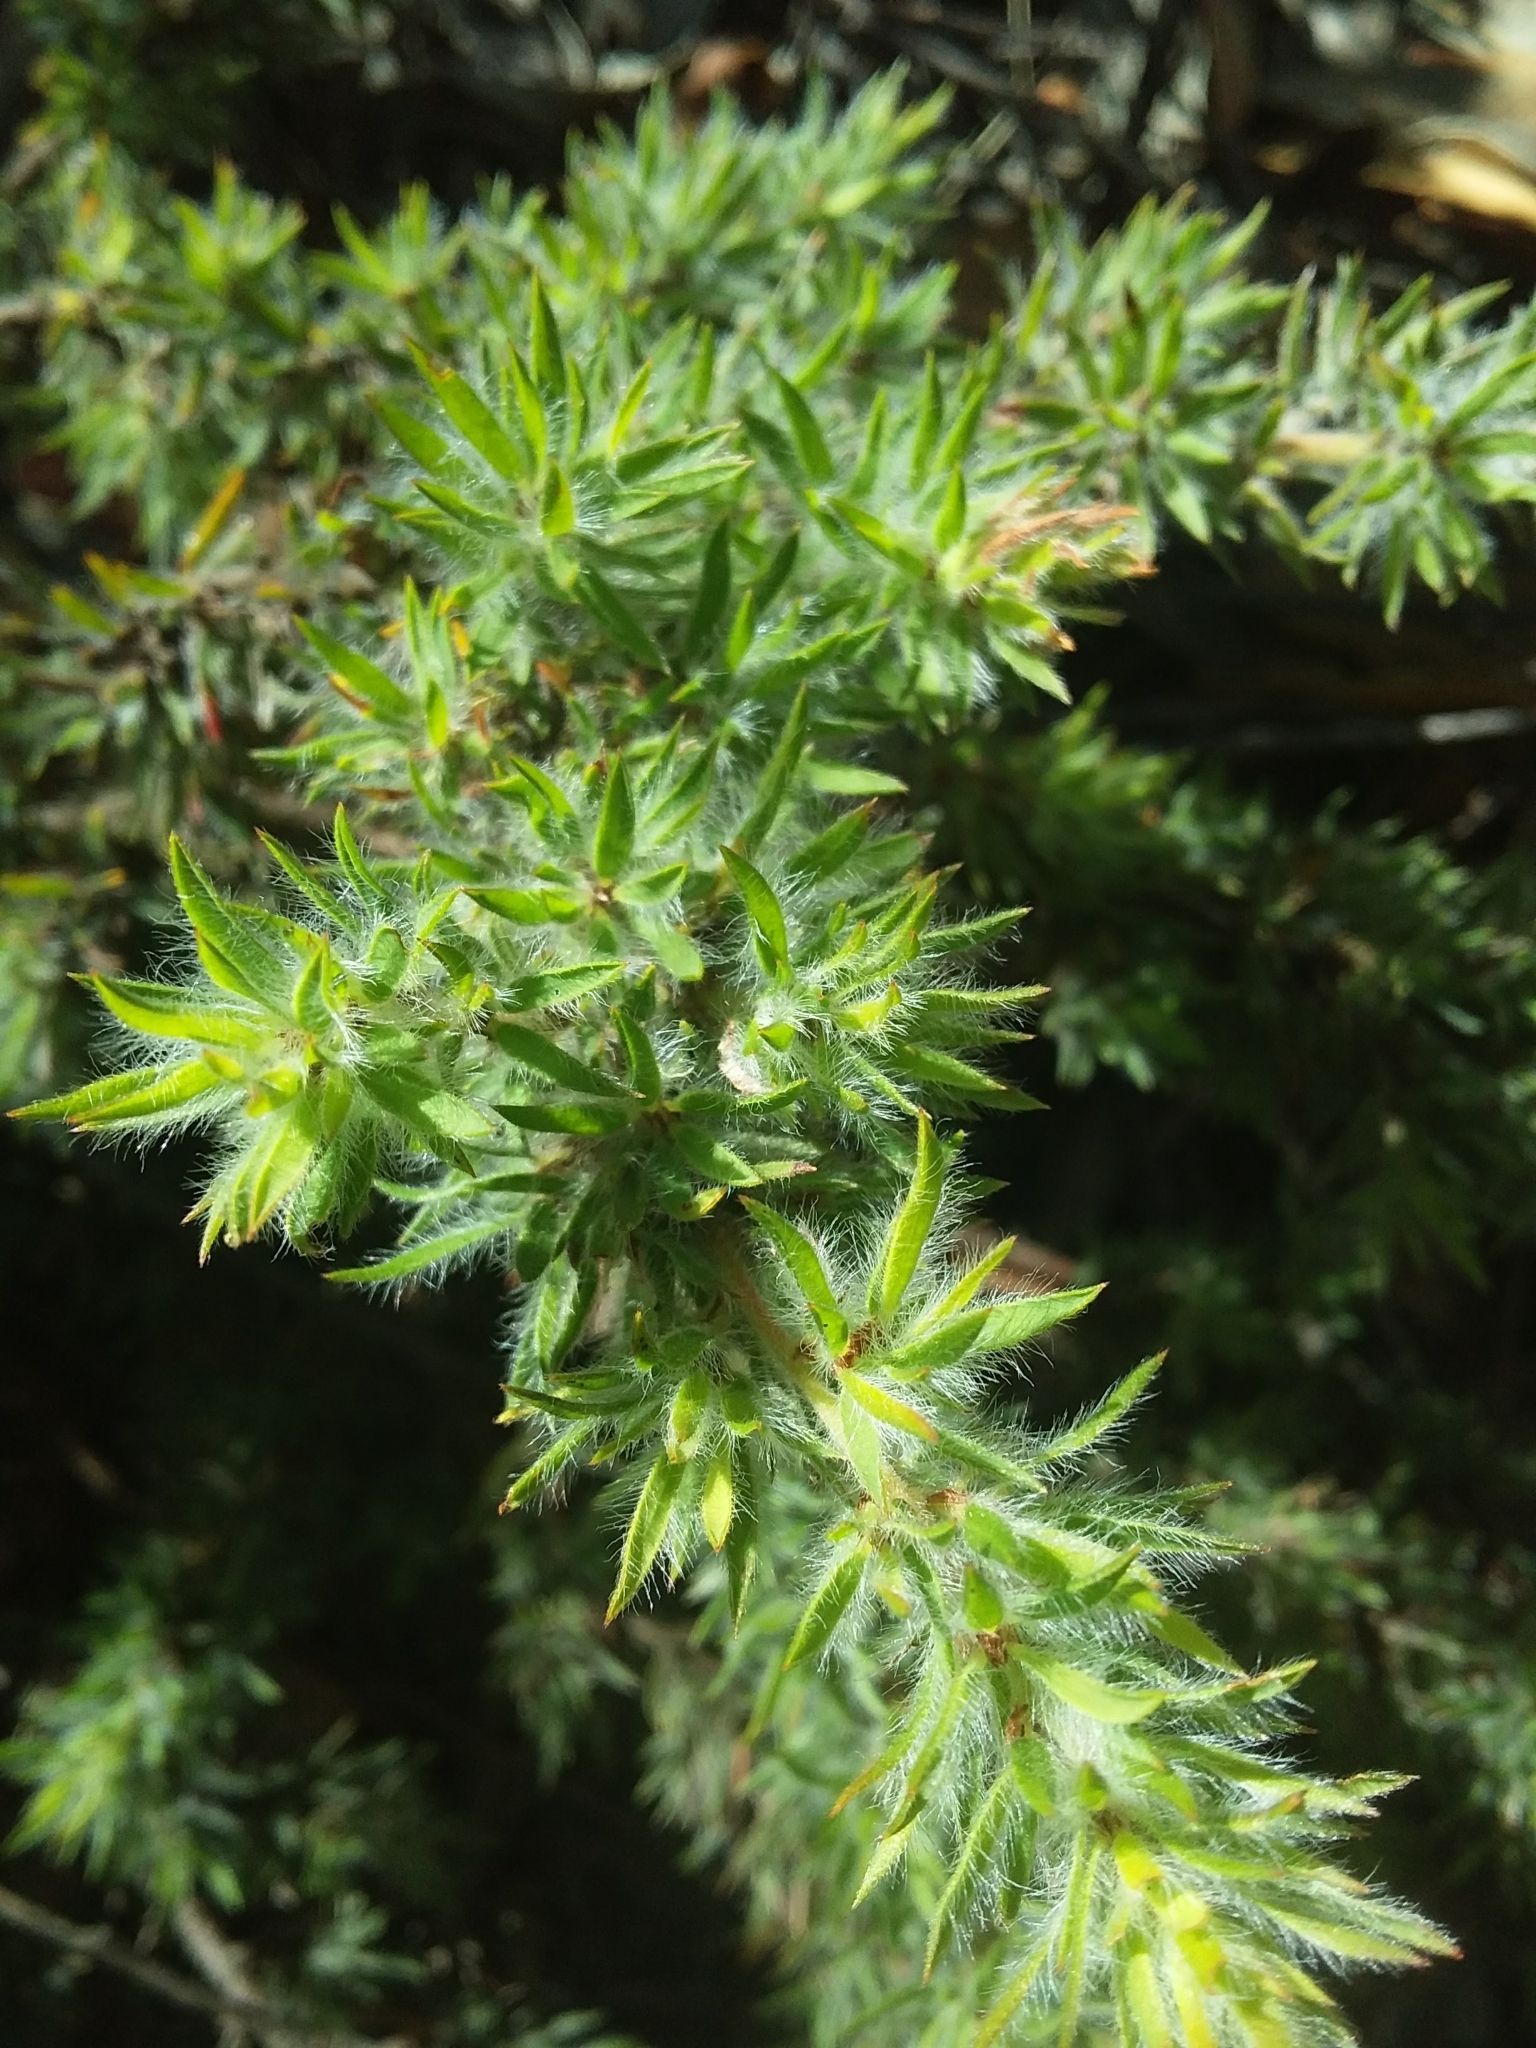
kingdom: Plantae
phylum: Tracheophyta
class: Magnoliopsida
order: Fabales
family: Fabaceae
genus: Pultenaea
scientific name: Pultenaea involucrata
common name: Mount lofty bush-pea
